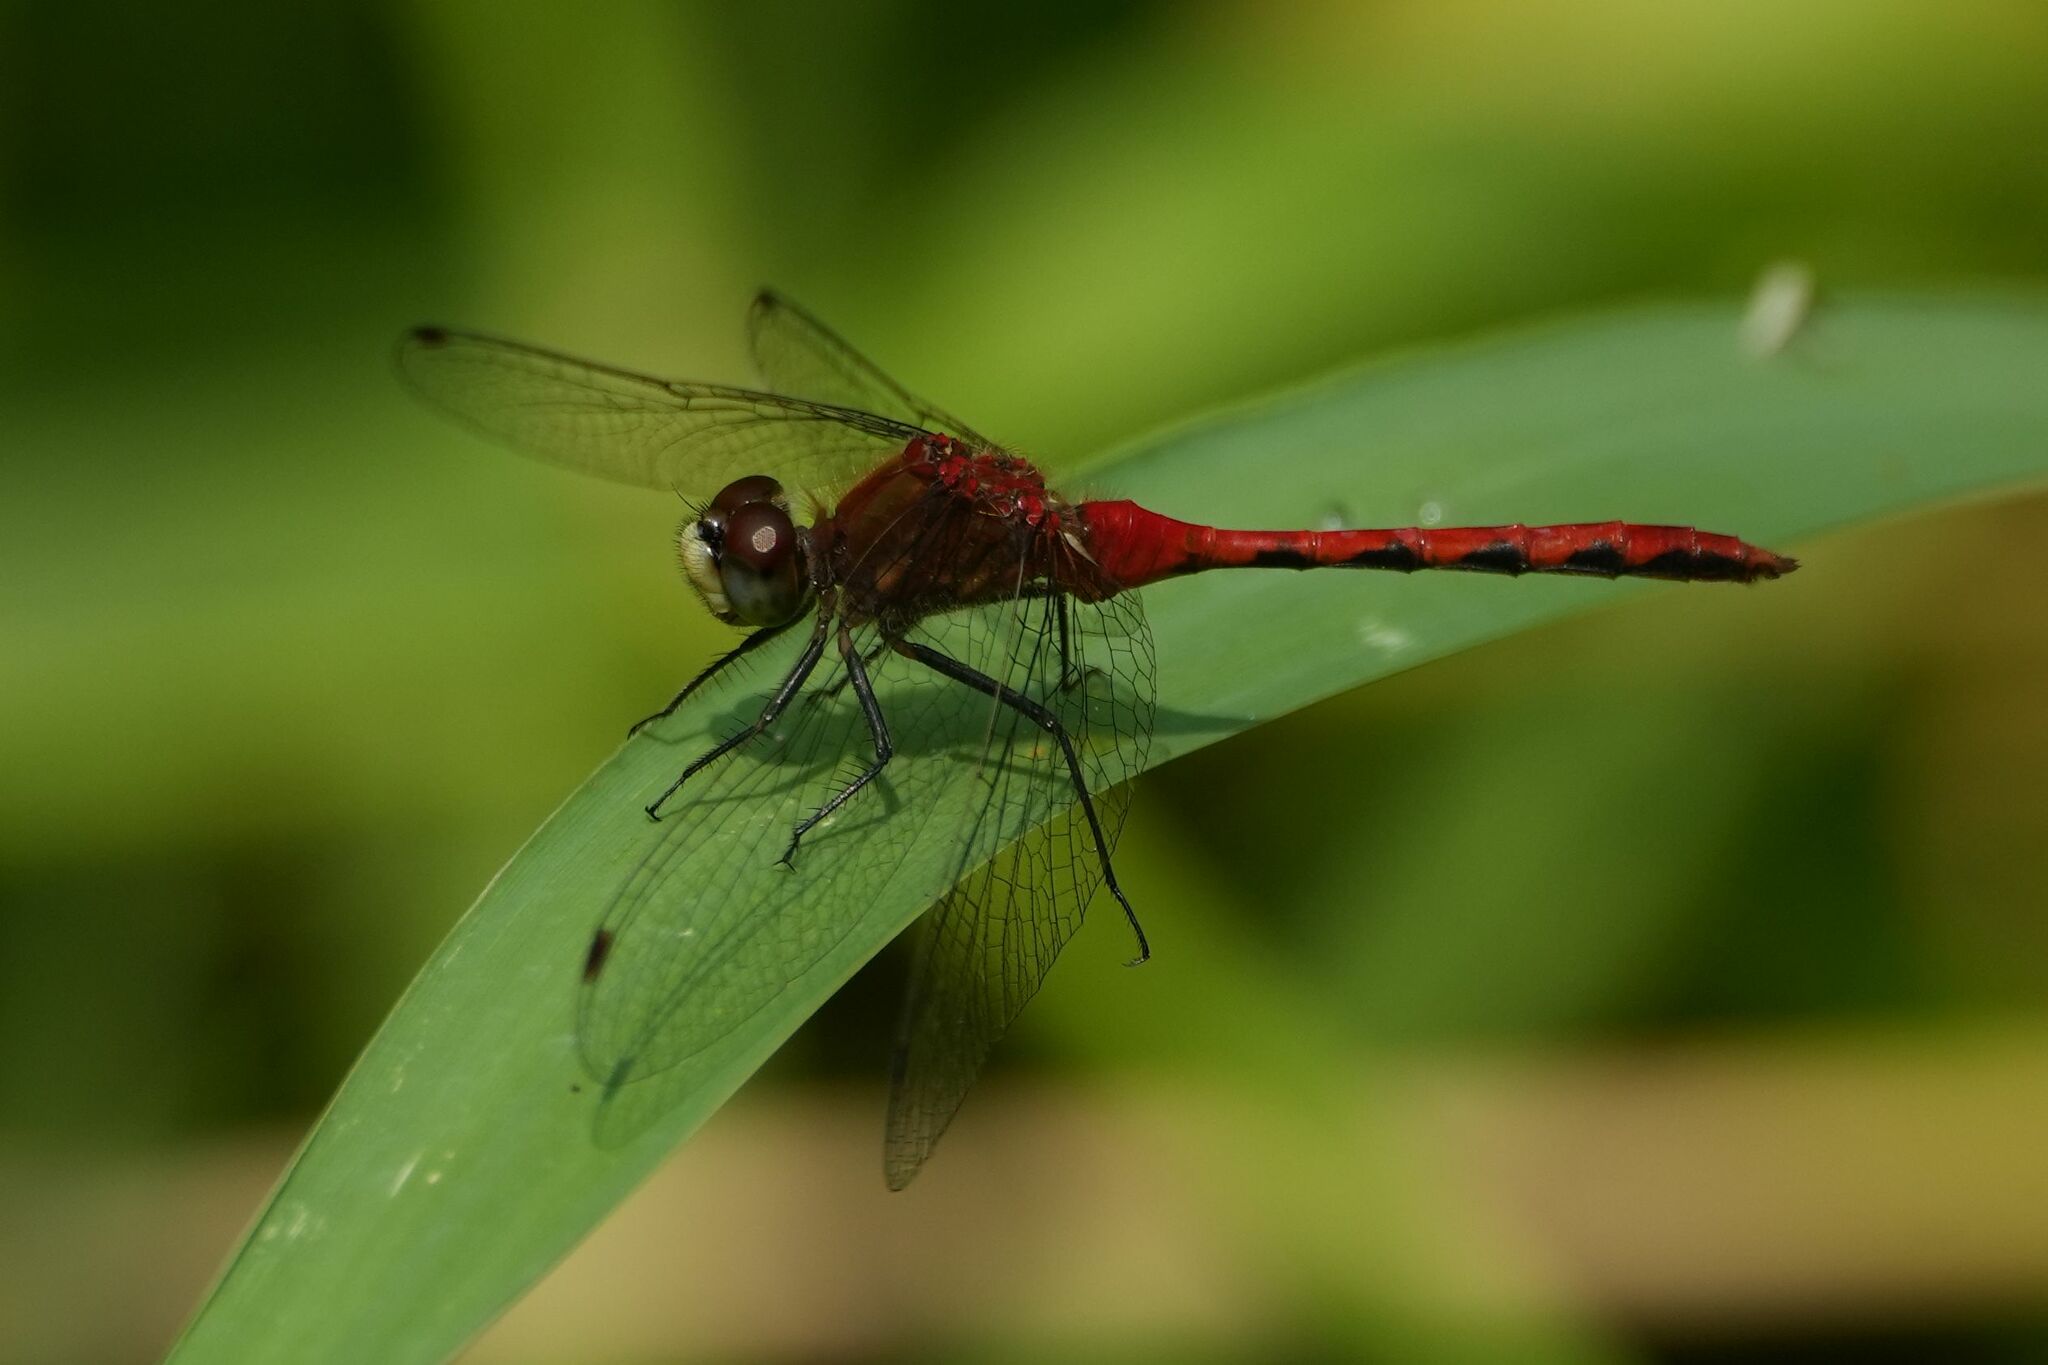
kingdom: Animalia
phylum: Arthropoda
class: Insecta
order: Odonata
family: Libellulidae
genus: Sympetrum
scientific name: Sympetrum obtrusum
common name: White-faced meadowhawk
